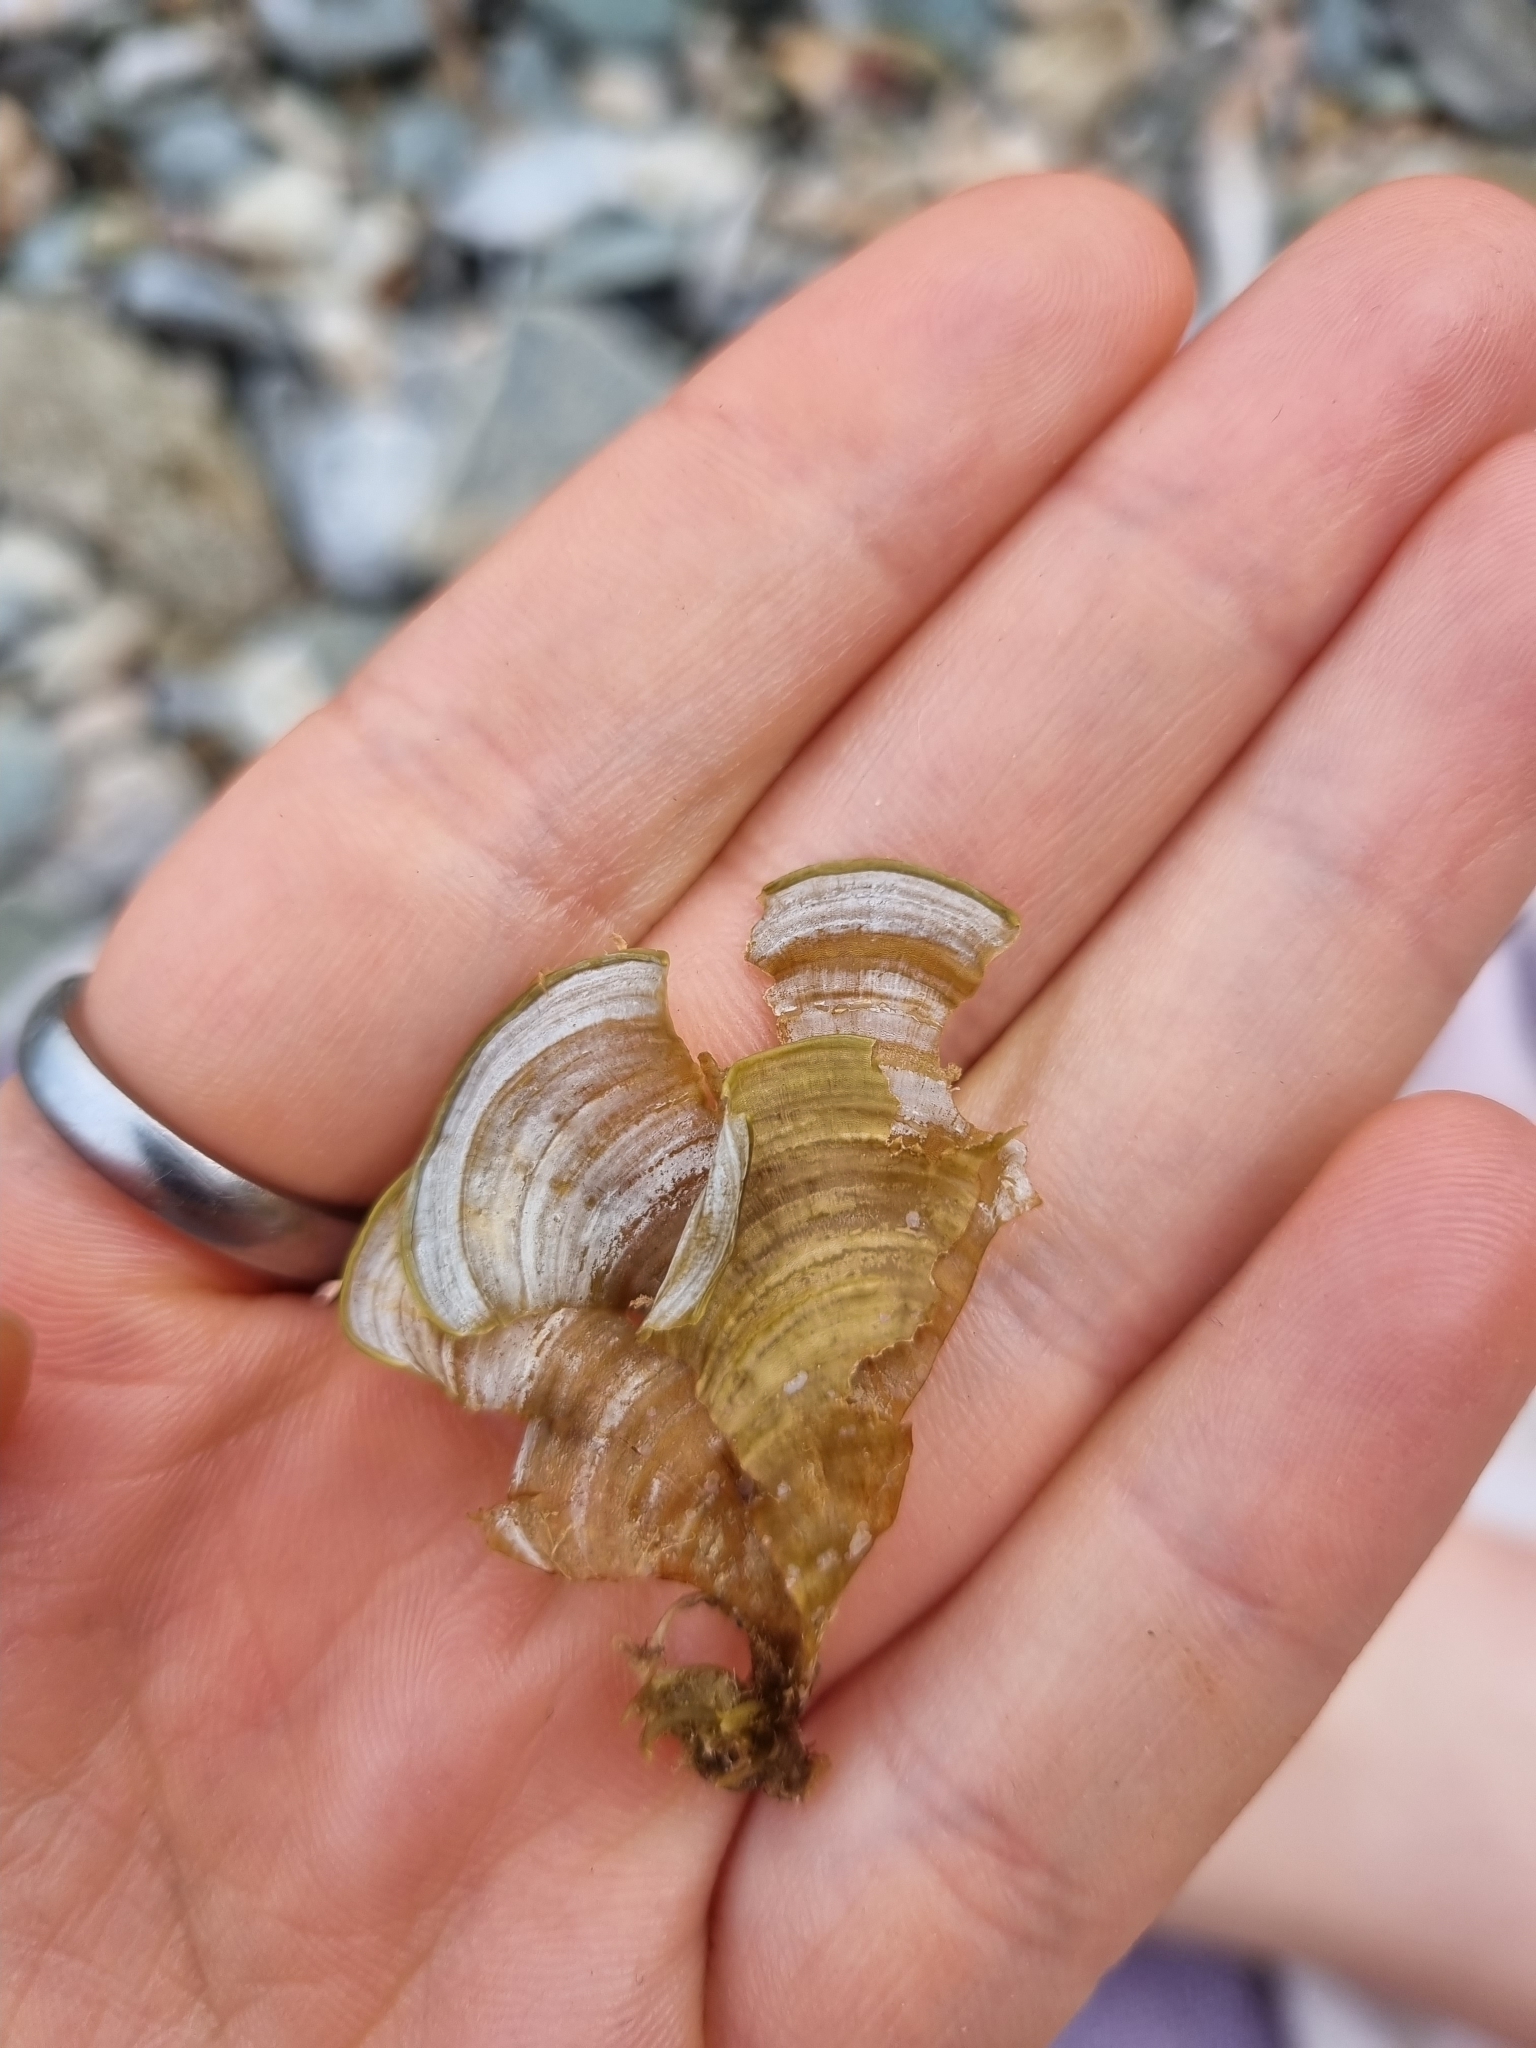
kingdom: Chromista
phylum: Ochrophyta
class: Phaeophyceae
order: Dictyotales
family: Dictyotaceae
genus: Padina
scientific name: Padina
